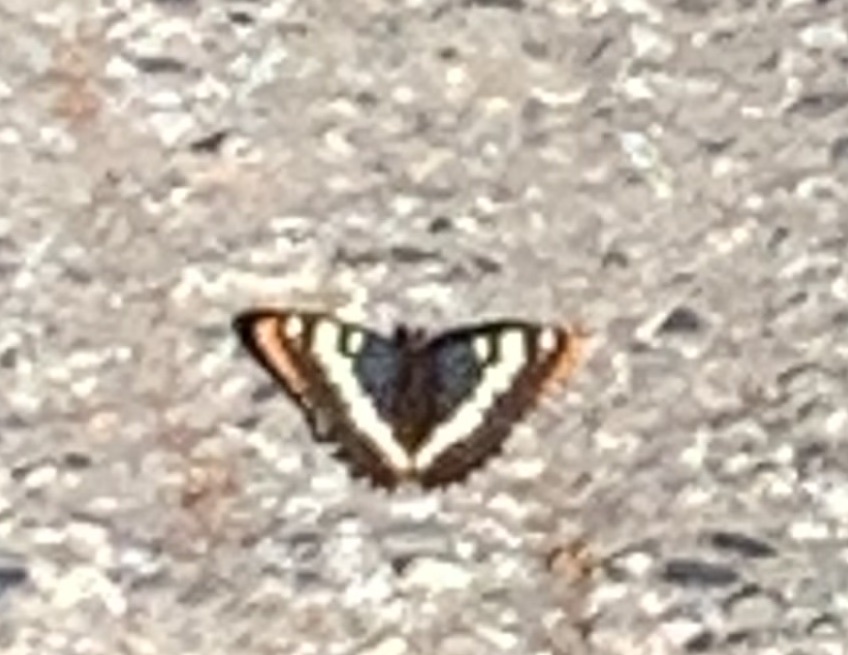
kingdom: Animalia
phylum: Arthropoda
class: Insecta
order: Lepidoptera
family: Nymphalidae
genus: Limenitis
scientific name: Limenitis lorquini
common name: Lorquin's admiral
